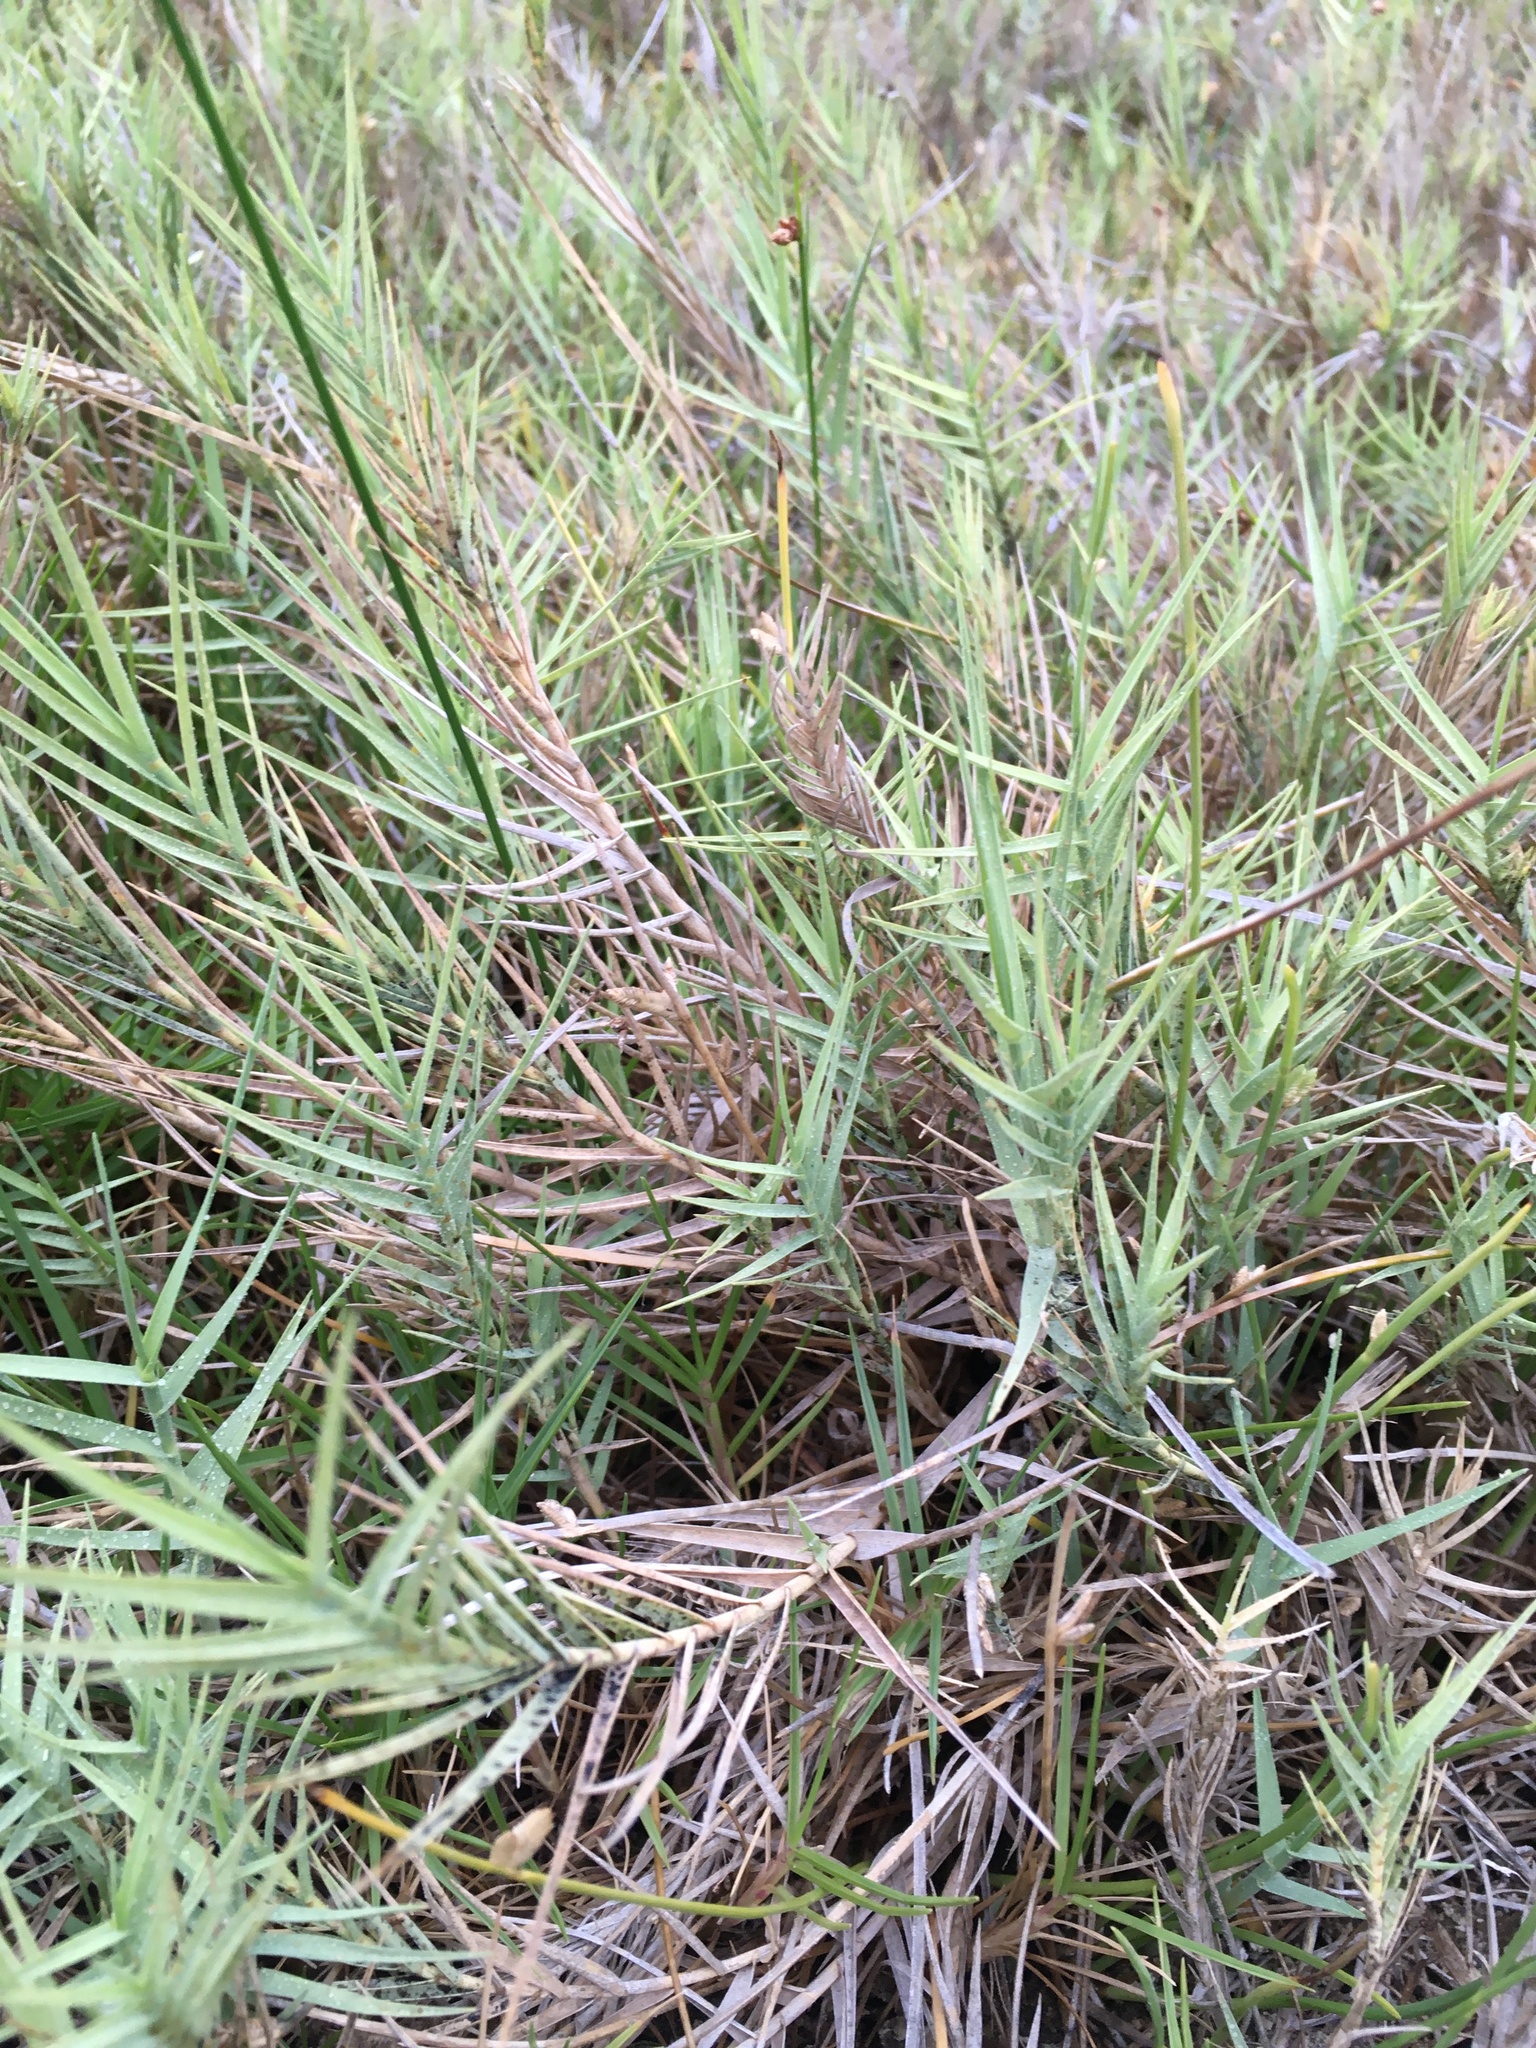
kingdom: Plantae
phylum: Tracheophyta
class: Liliopsida
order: Poales
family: Poaceae
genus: Distichlis
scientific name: Distichlis spicata
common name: Saltgrass
